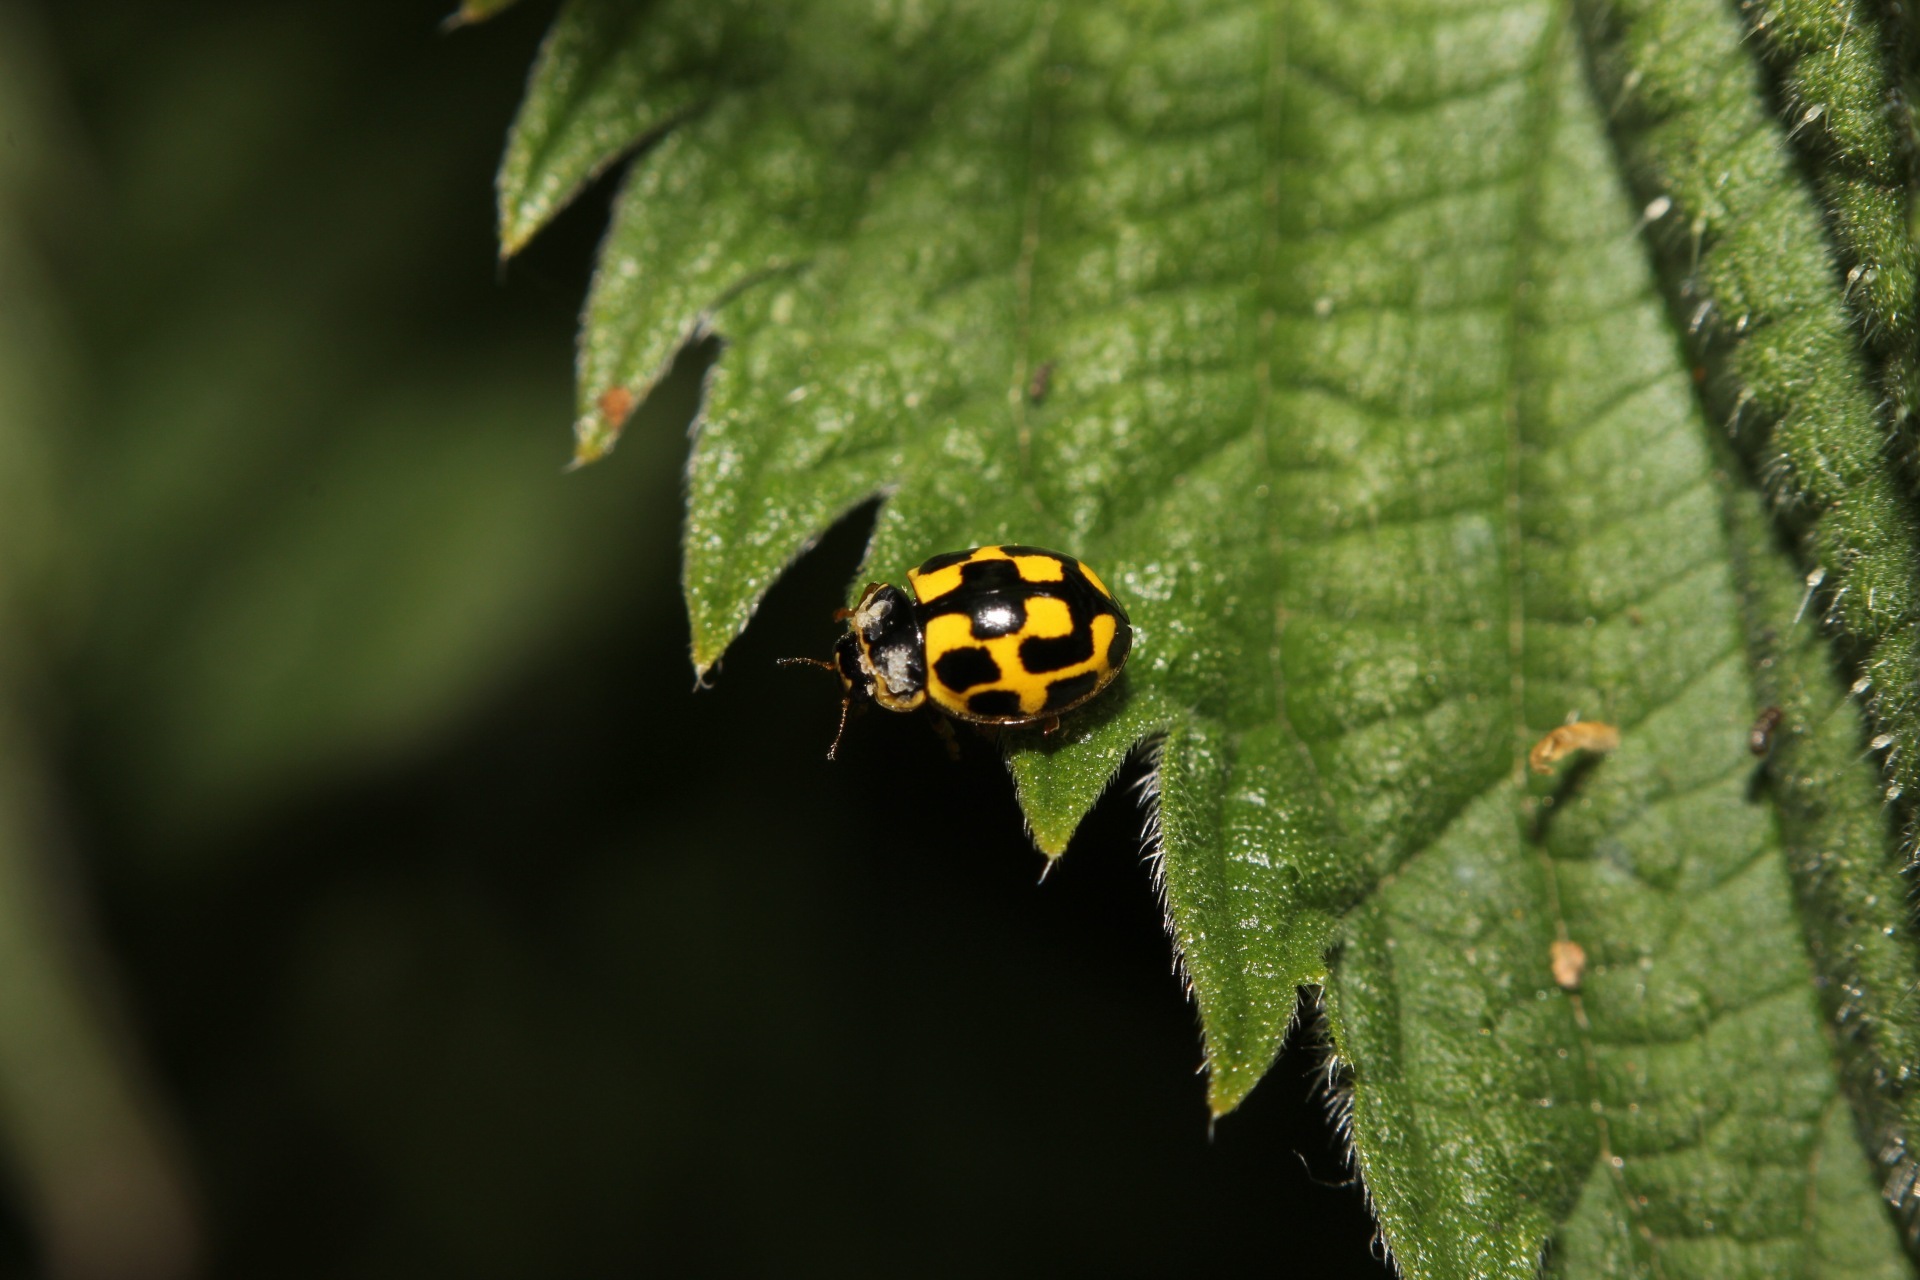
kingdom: Animalia
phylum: Arthropoda
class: Insecta
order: Coleoptera
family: Coccinellidae
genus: Propylaea
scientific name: Propylaea quatuordecimpunctata
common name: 14-spotted ladybird beetle
